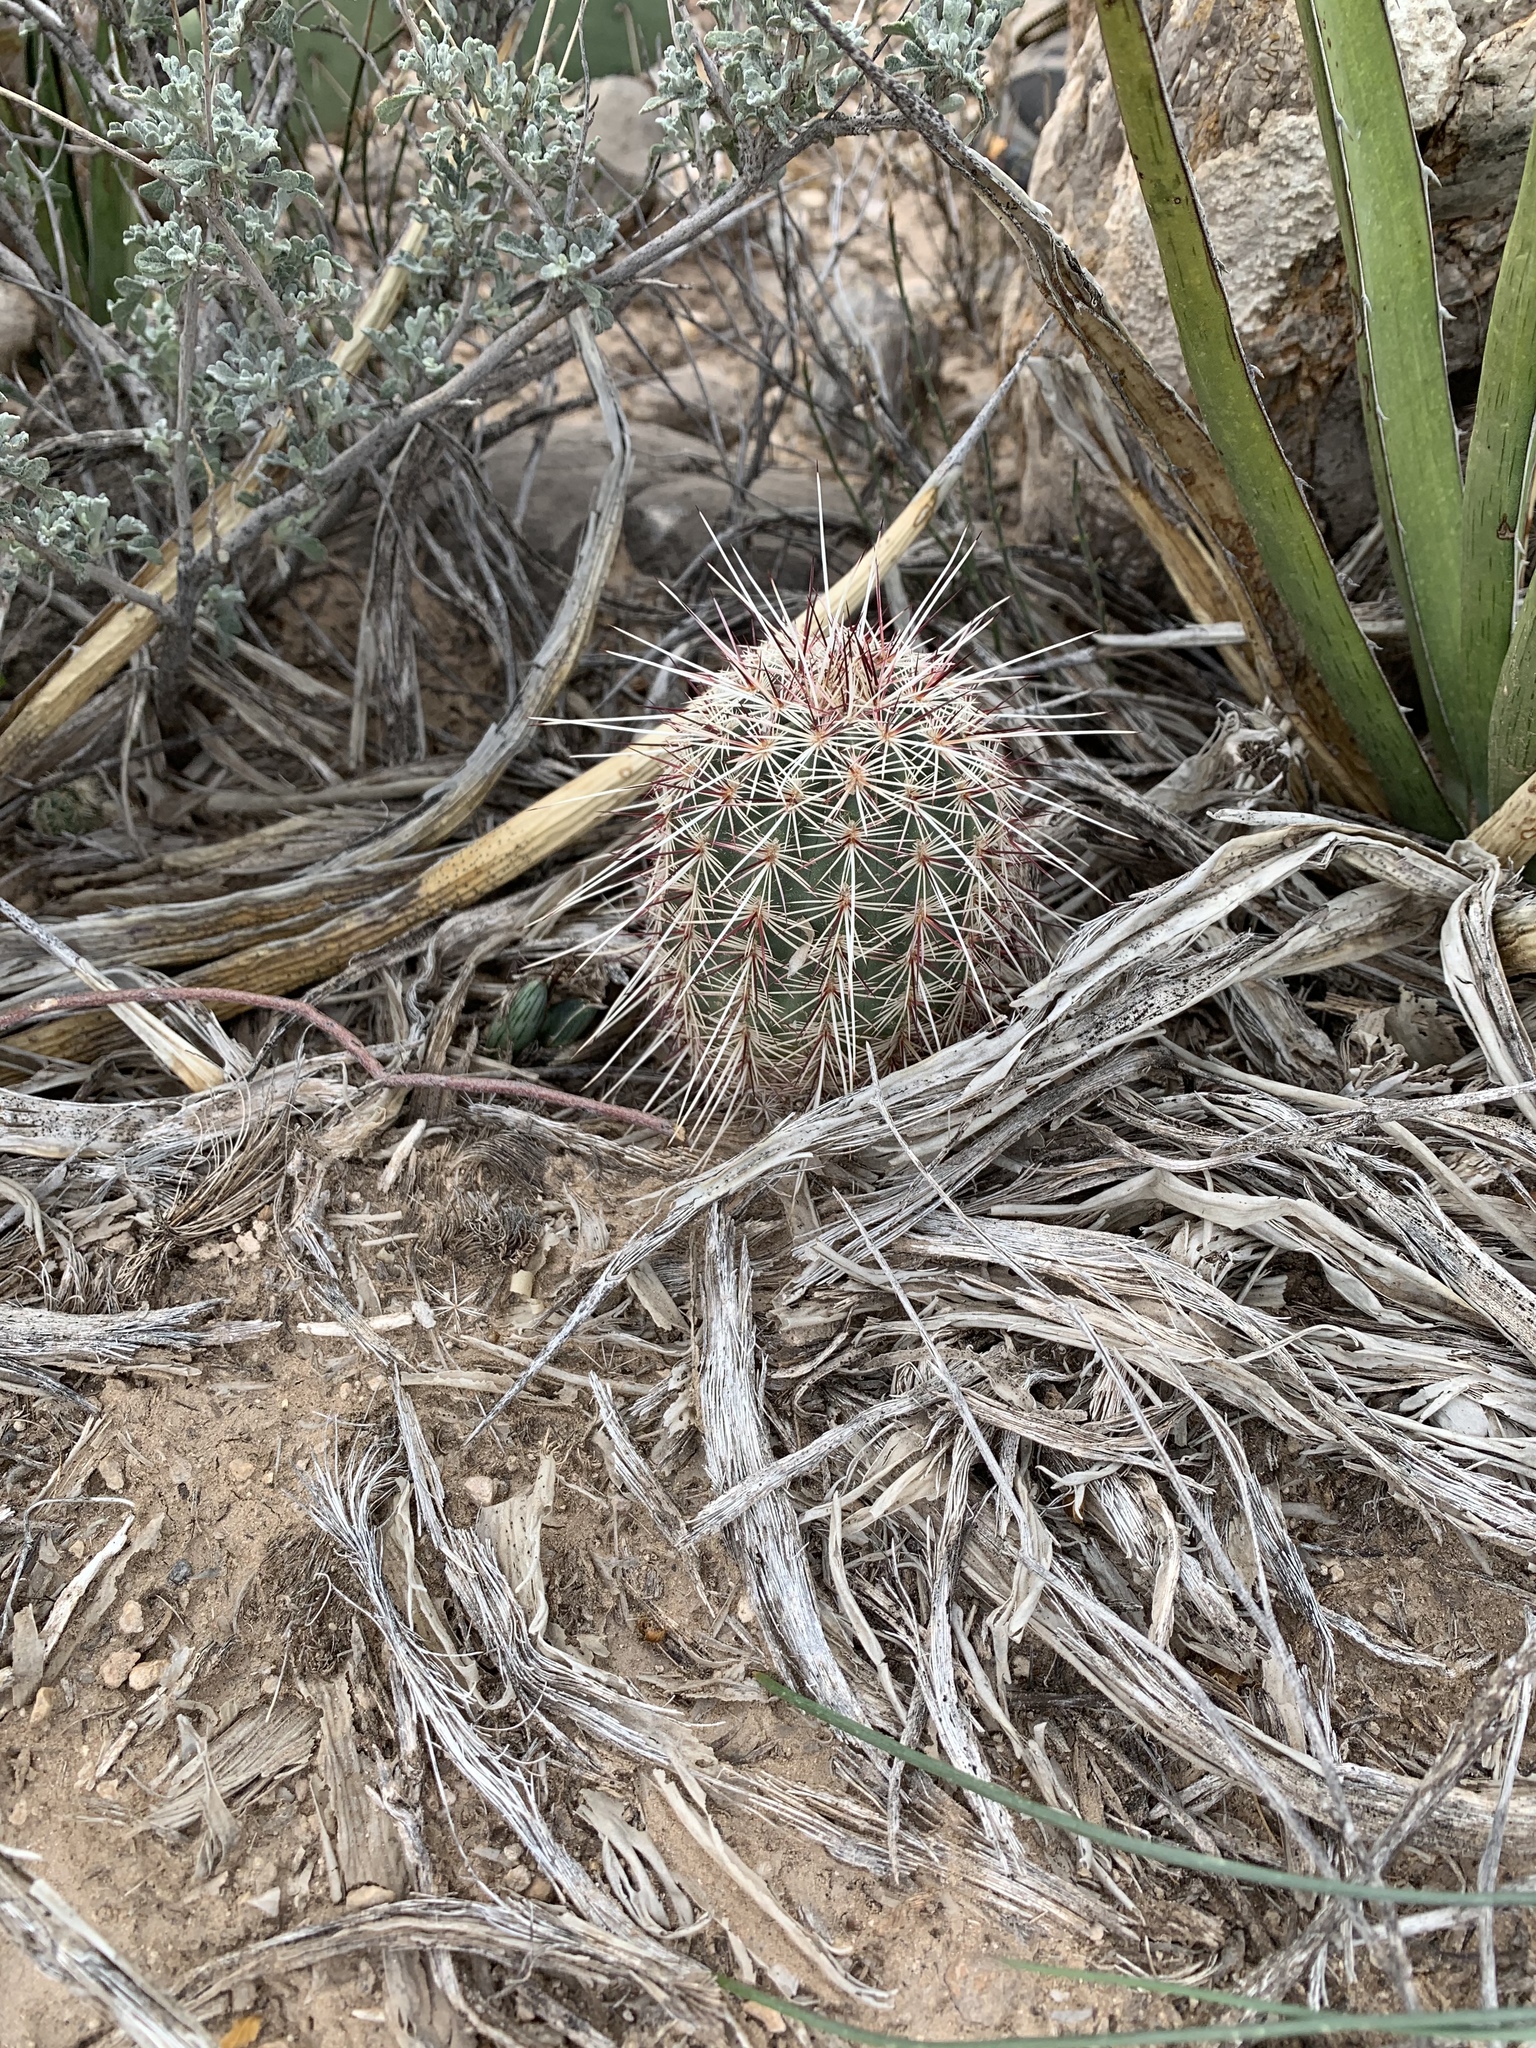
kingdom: Plantae
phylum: Tracheophyta
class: Magnoliopsida
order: Caryophyllales
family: Cactaceae
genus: Echinocereus
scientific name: Echinocereus viridiflorus
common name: Nylon hedgehog cactus
